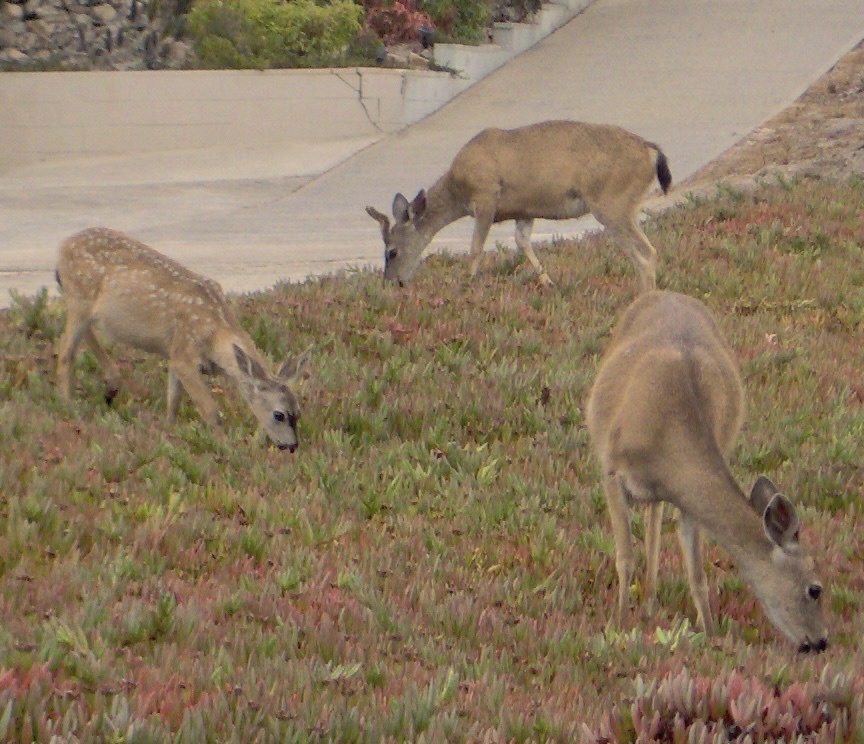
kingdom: Animalia
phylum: Chordata
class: Mammalia
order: Artiodactyla
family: Cervidae
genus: Odocoileus
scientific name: Odocoileus hemionus
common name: Mule deer
